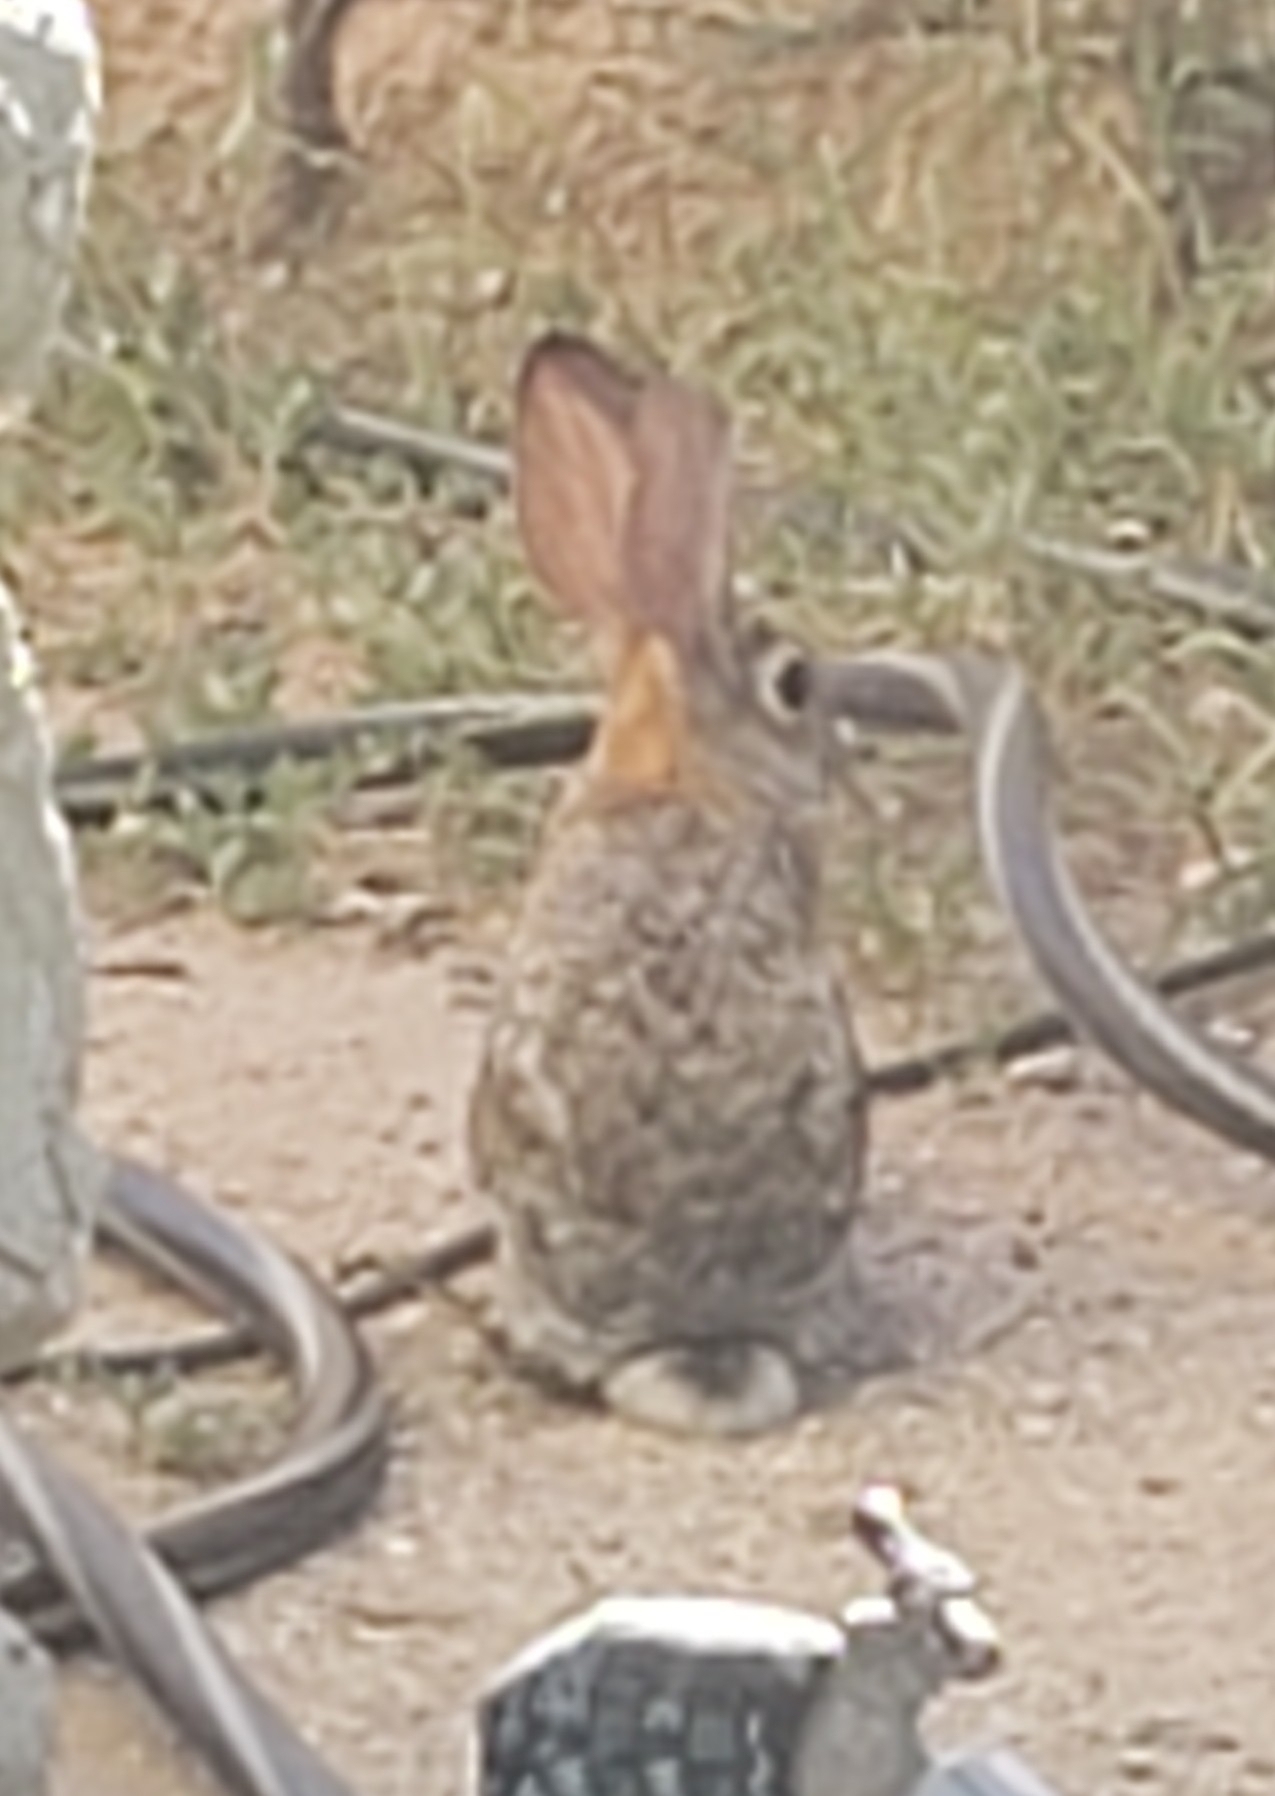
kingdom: Animalia
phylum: Chordata
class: Mammalia
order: Lagomorpha
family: Leporidae
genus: Sylvilagus
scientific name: Sylvilagus audubonii
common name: Desert cottontail
